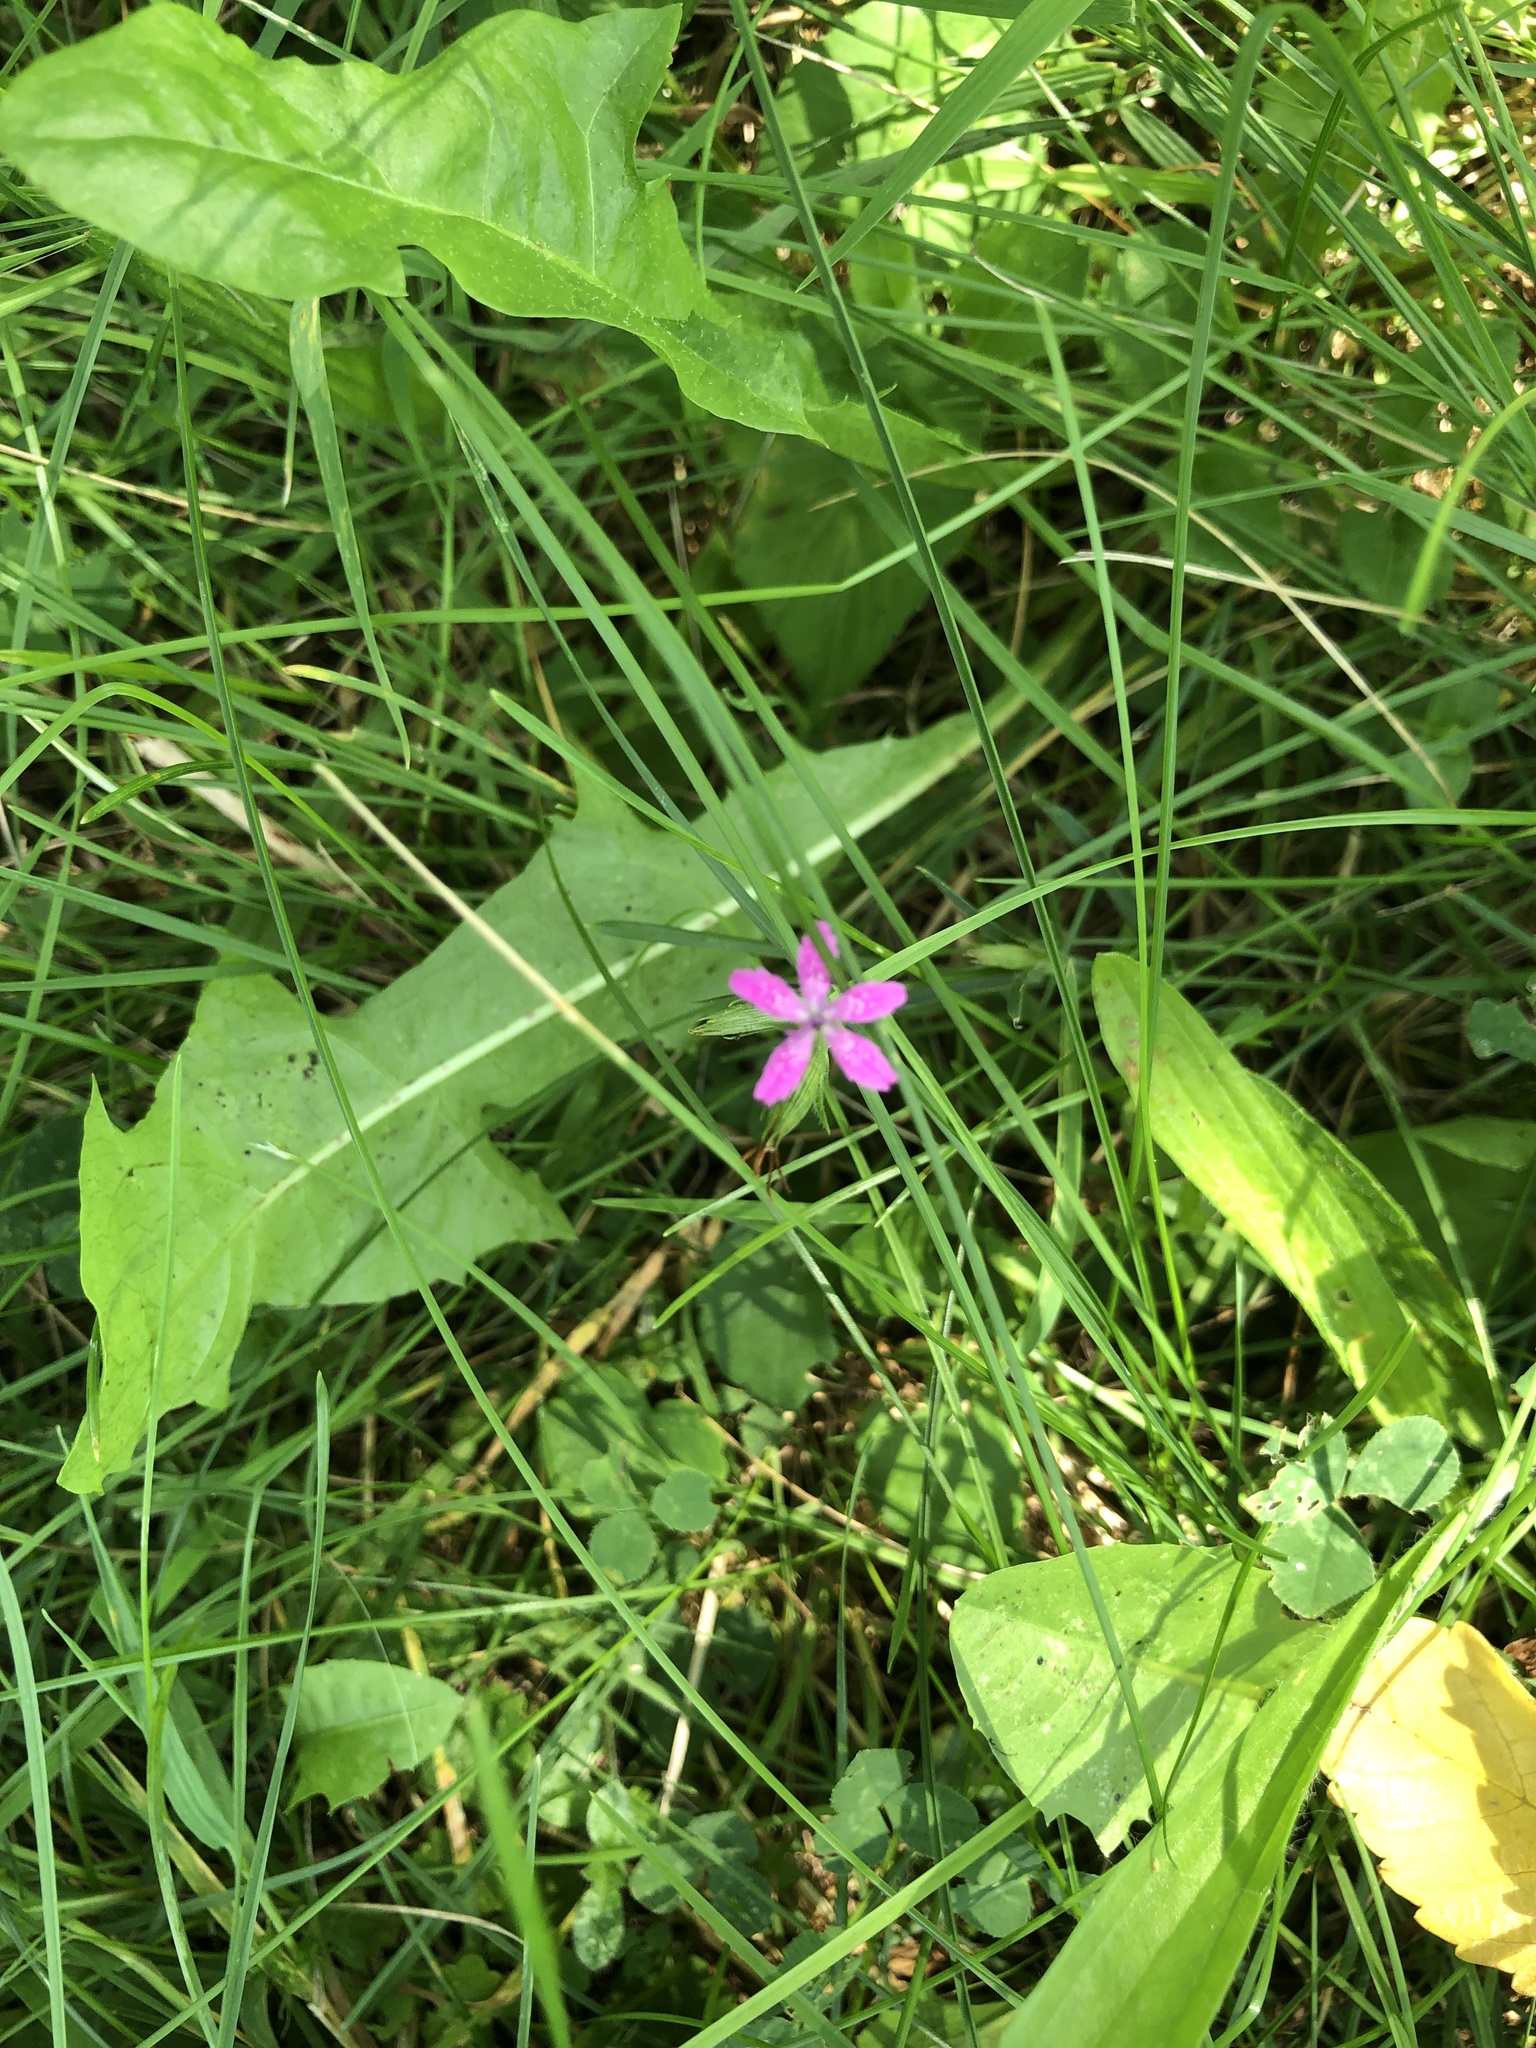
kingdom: Plantae
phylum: Tracheophyta
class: Magnoliopsida
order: Caryophyllales
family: Caryophyllaceae
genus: Dianthus
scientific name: Dianthus armeria
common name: Deptford pink
